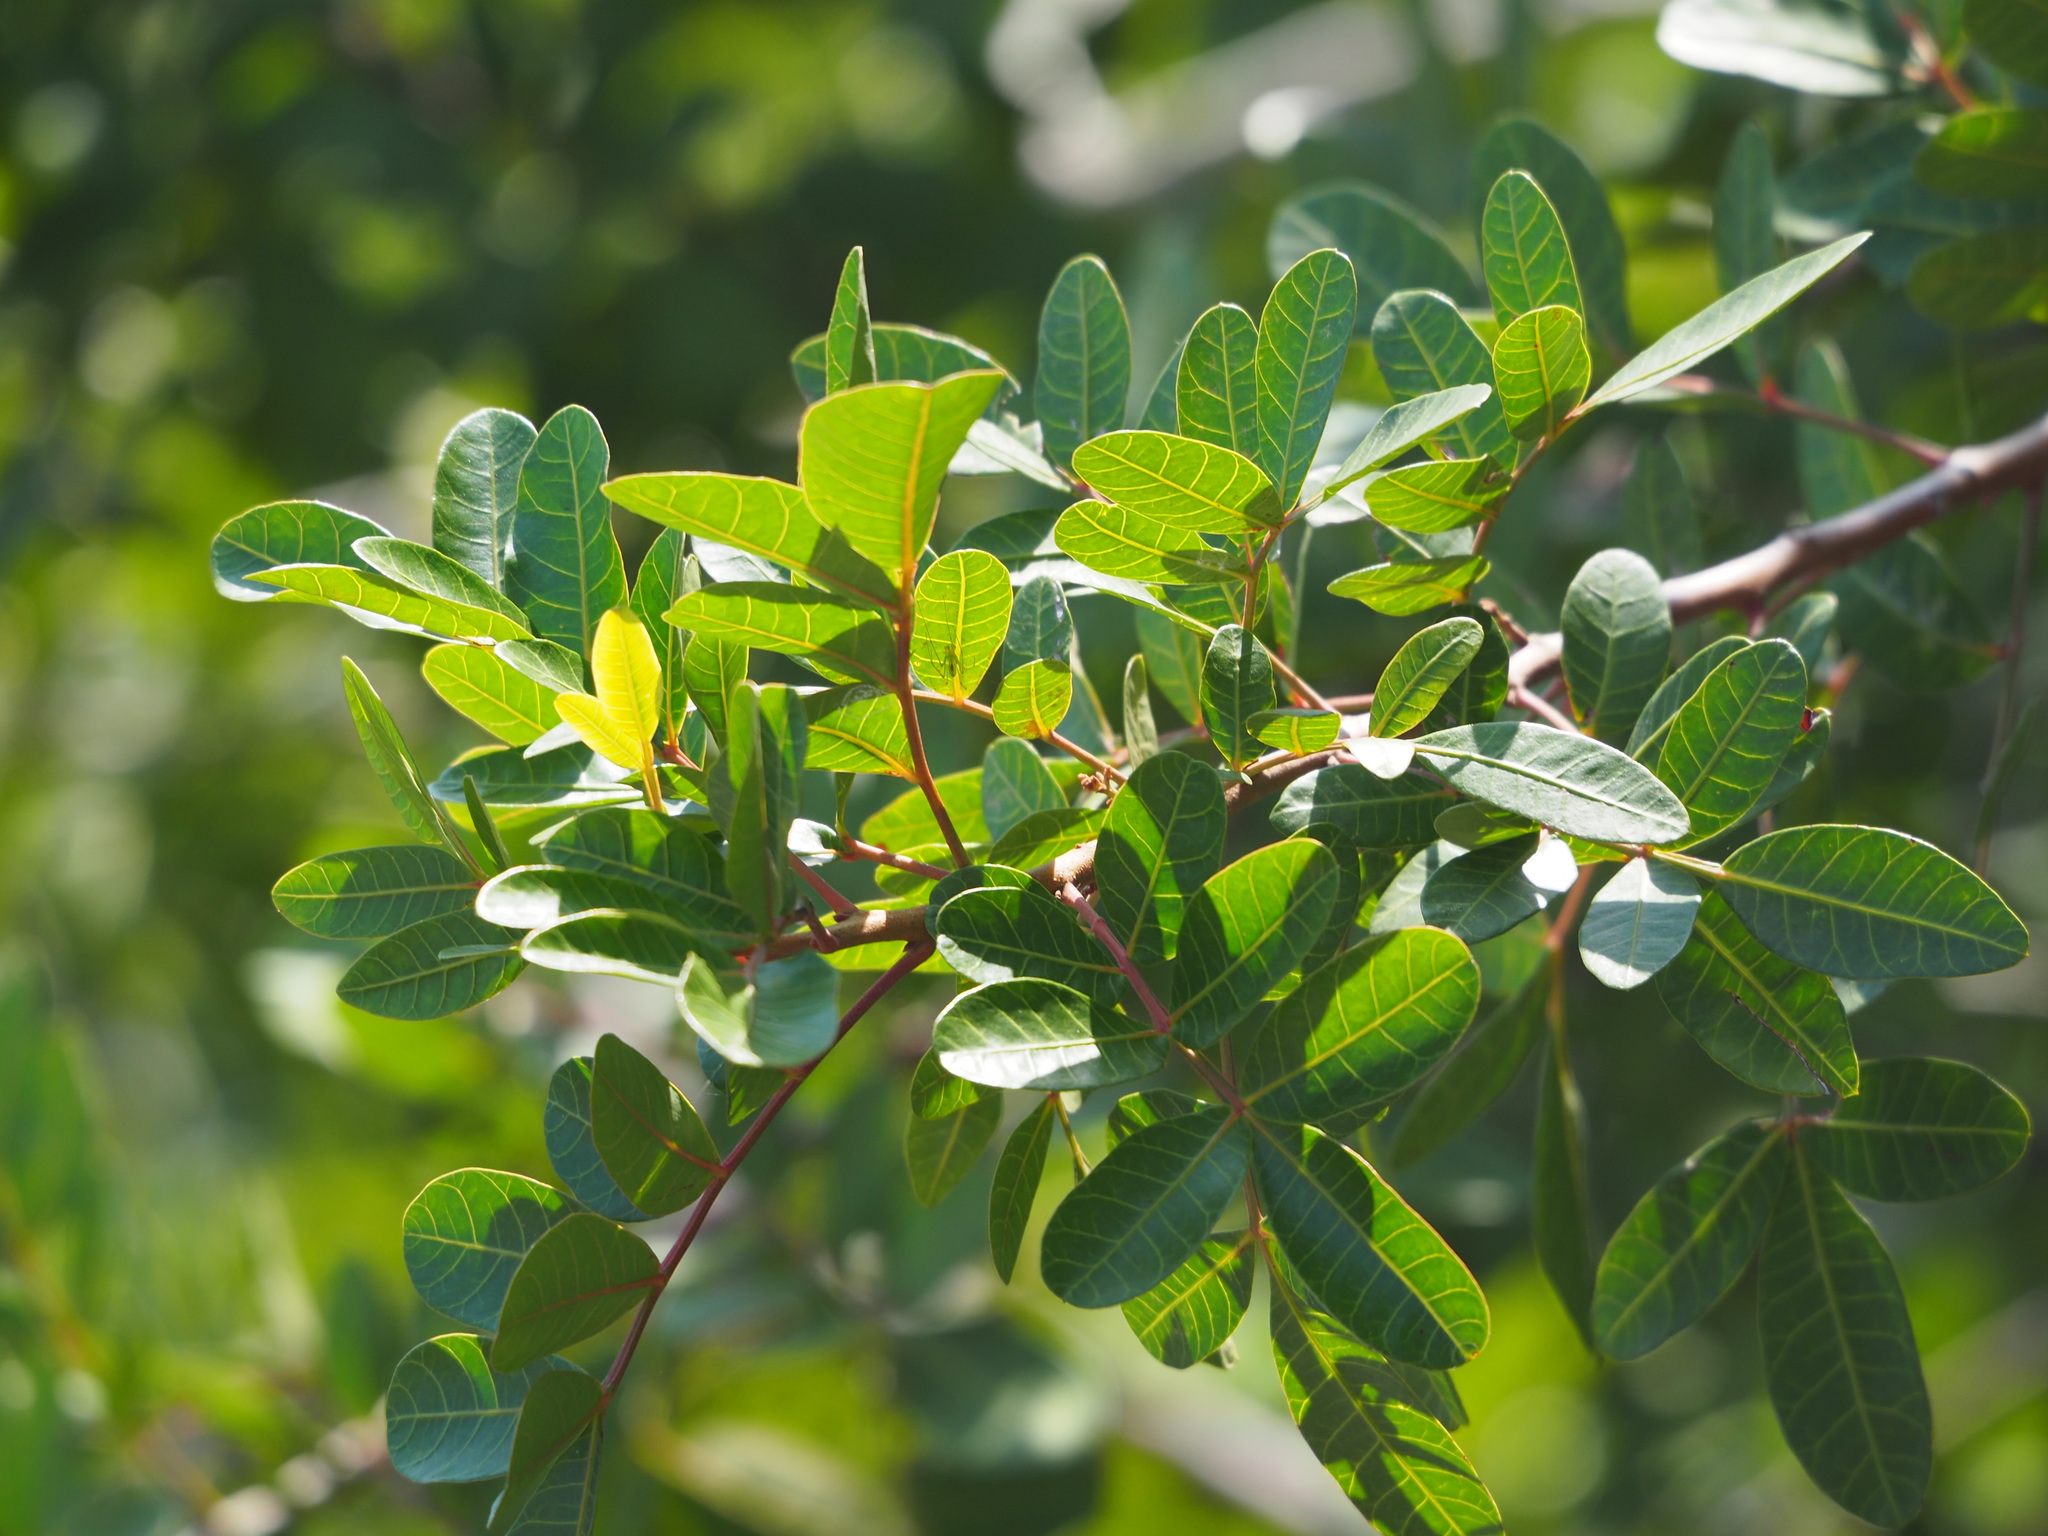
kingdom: Plantae
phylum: Tracheophyta
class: Magnoliopsida
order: Sapindales
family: Anacardiaceae
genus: Schinus
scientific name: Schinus terebinthifolia
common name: Brazilian peppertree
